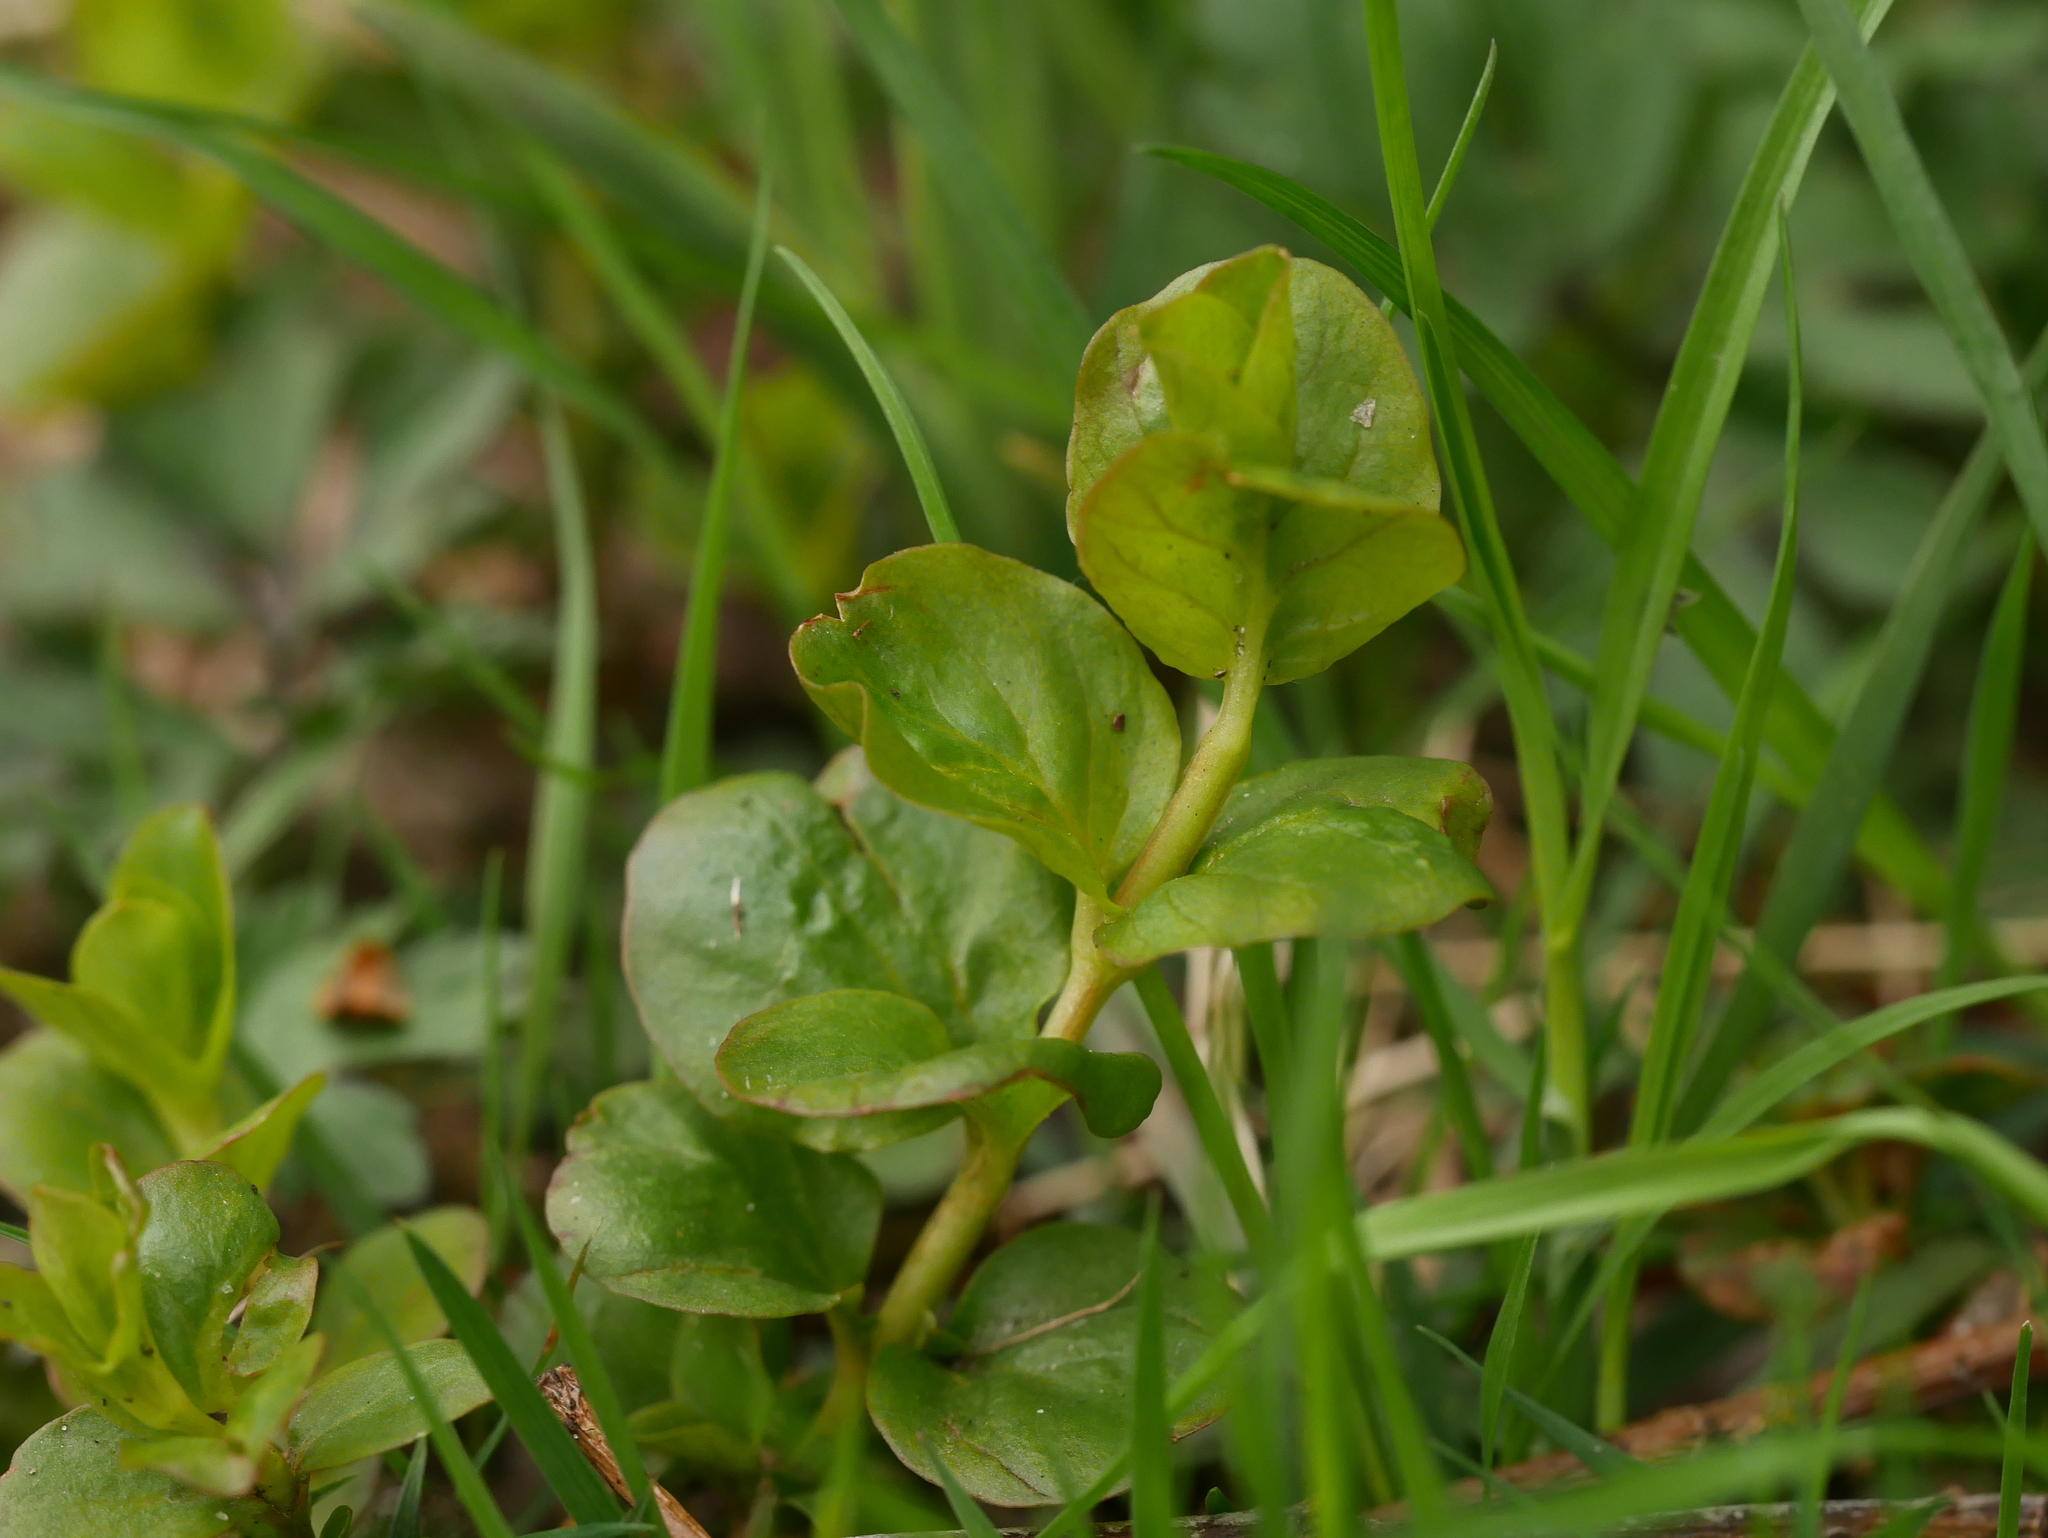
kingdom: Plantae
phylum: Tracheophyta
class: Magnoliopsida
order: Ericales
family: Primulaceae
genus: Lysimachia
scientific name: Lysimachia nummularia
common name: Moneywort
